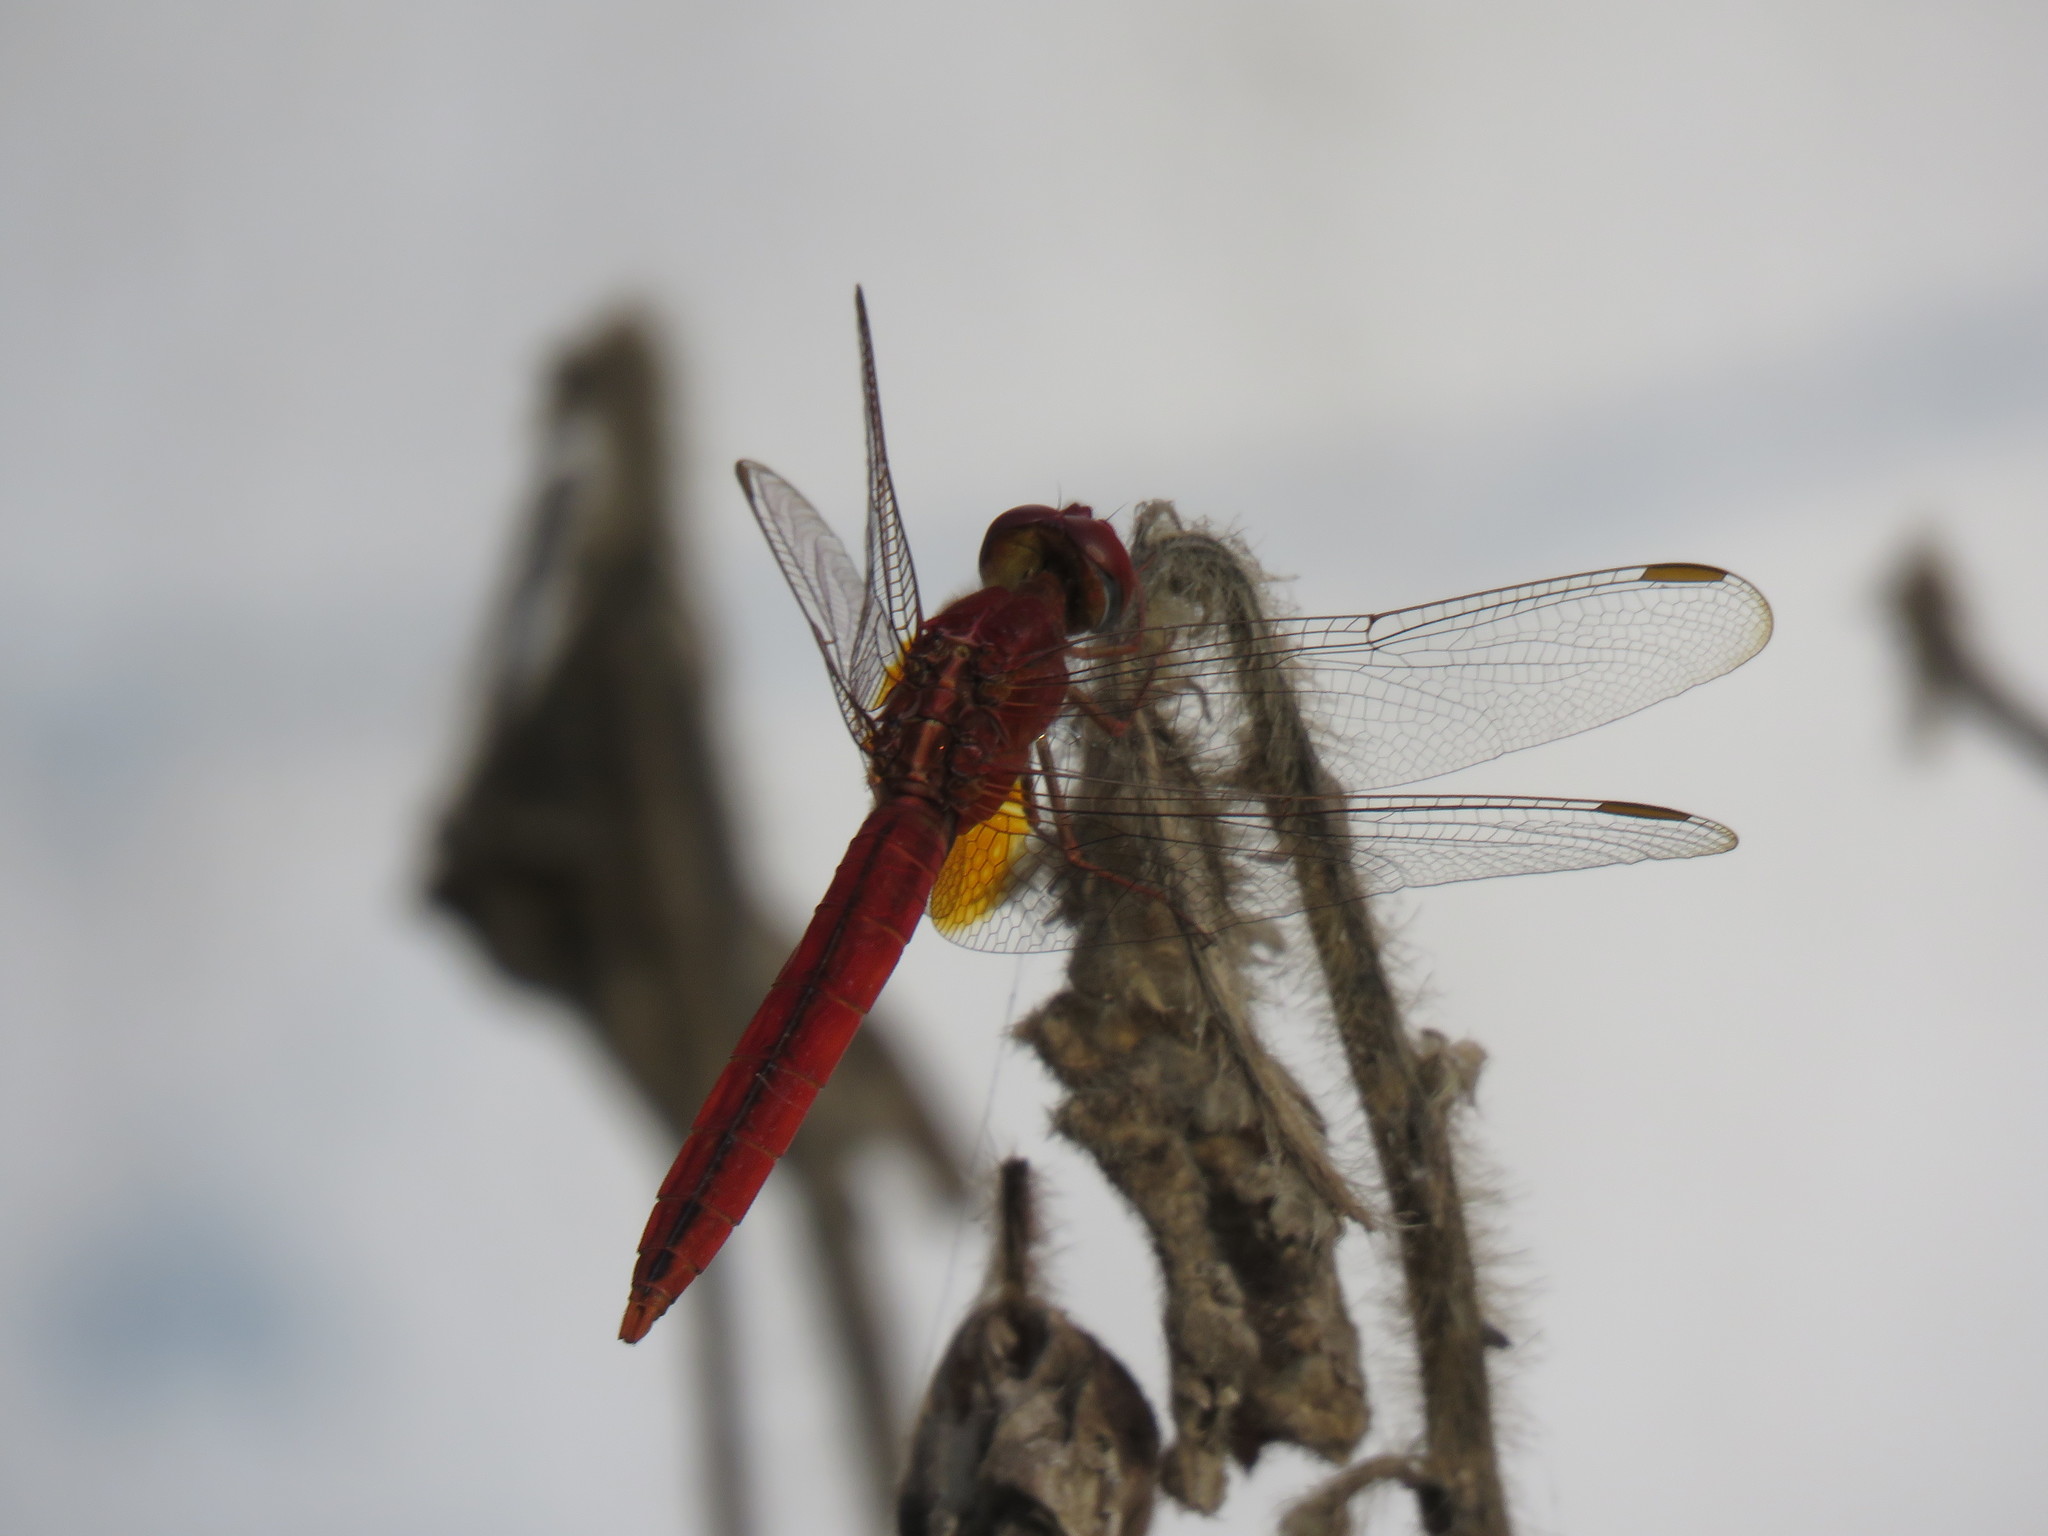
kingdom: Animalia
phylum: Arthropoda
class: Insecta
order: Odonata
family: Libellulidae
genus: Crocothemis
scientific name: Crocothemis servilia
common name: Scarlet skimmer
